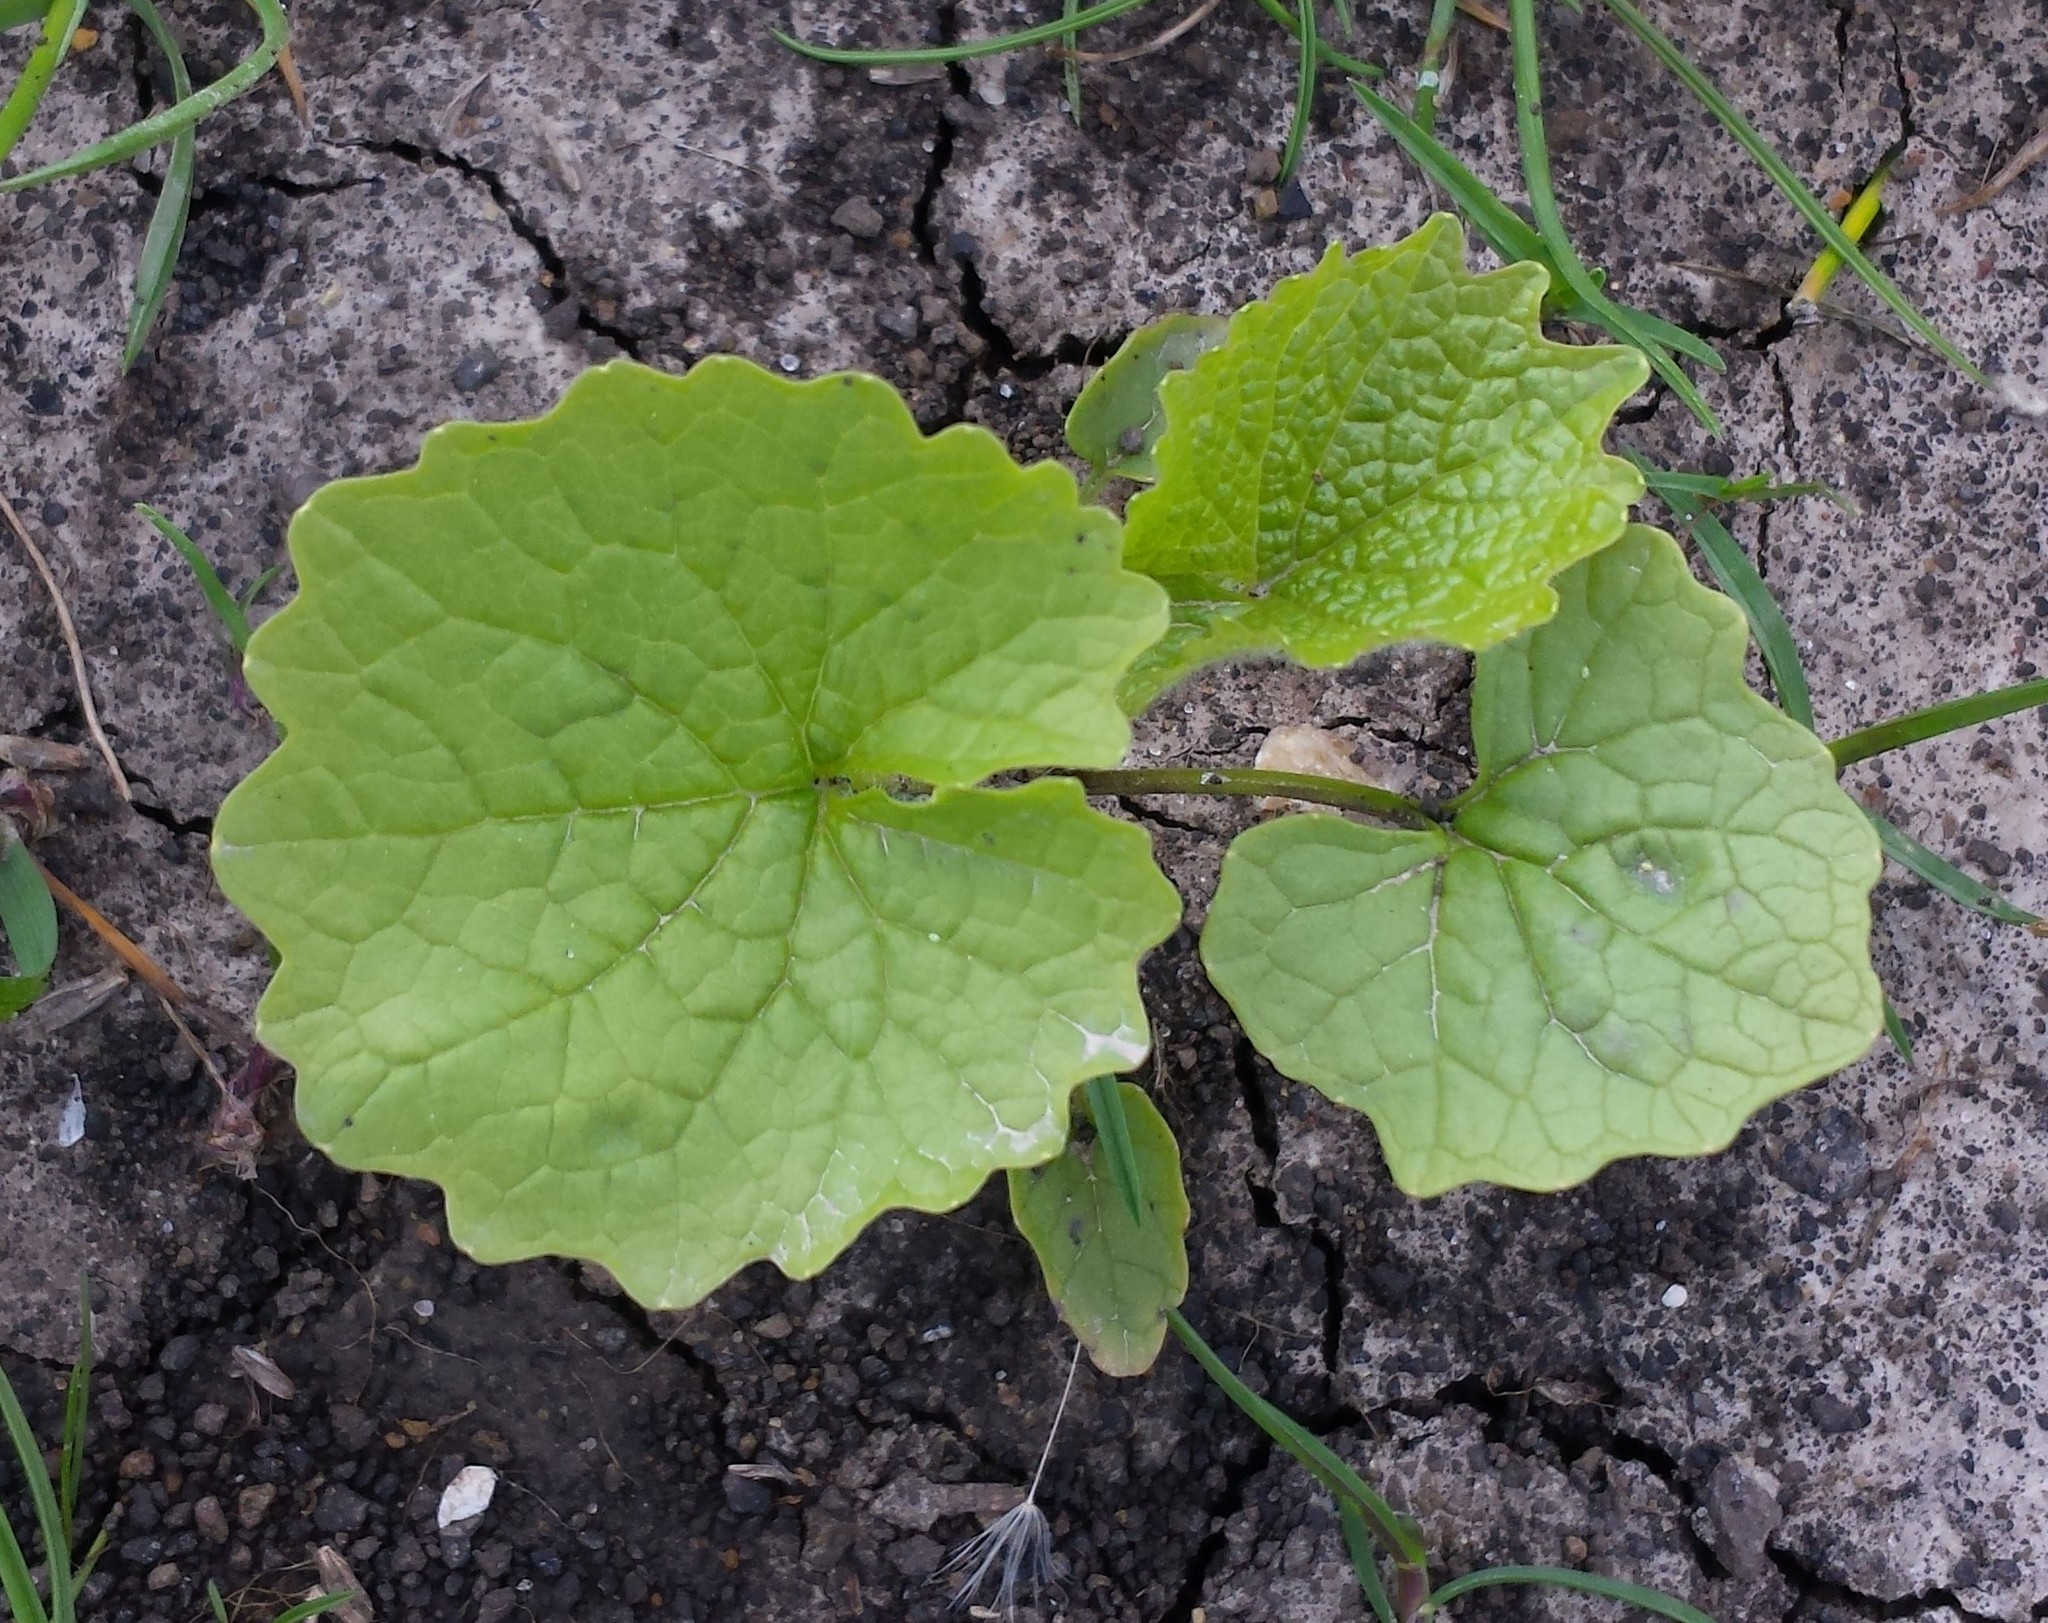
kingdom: Plantae
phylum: Tracheophyta
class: Magnoliopsida
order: Brassicales
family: Brassicaceae
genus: Alliaria
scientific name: Alliaria petiolata
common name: Garlic mustard
